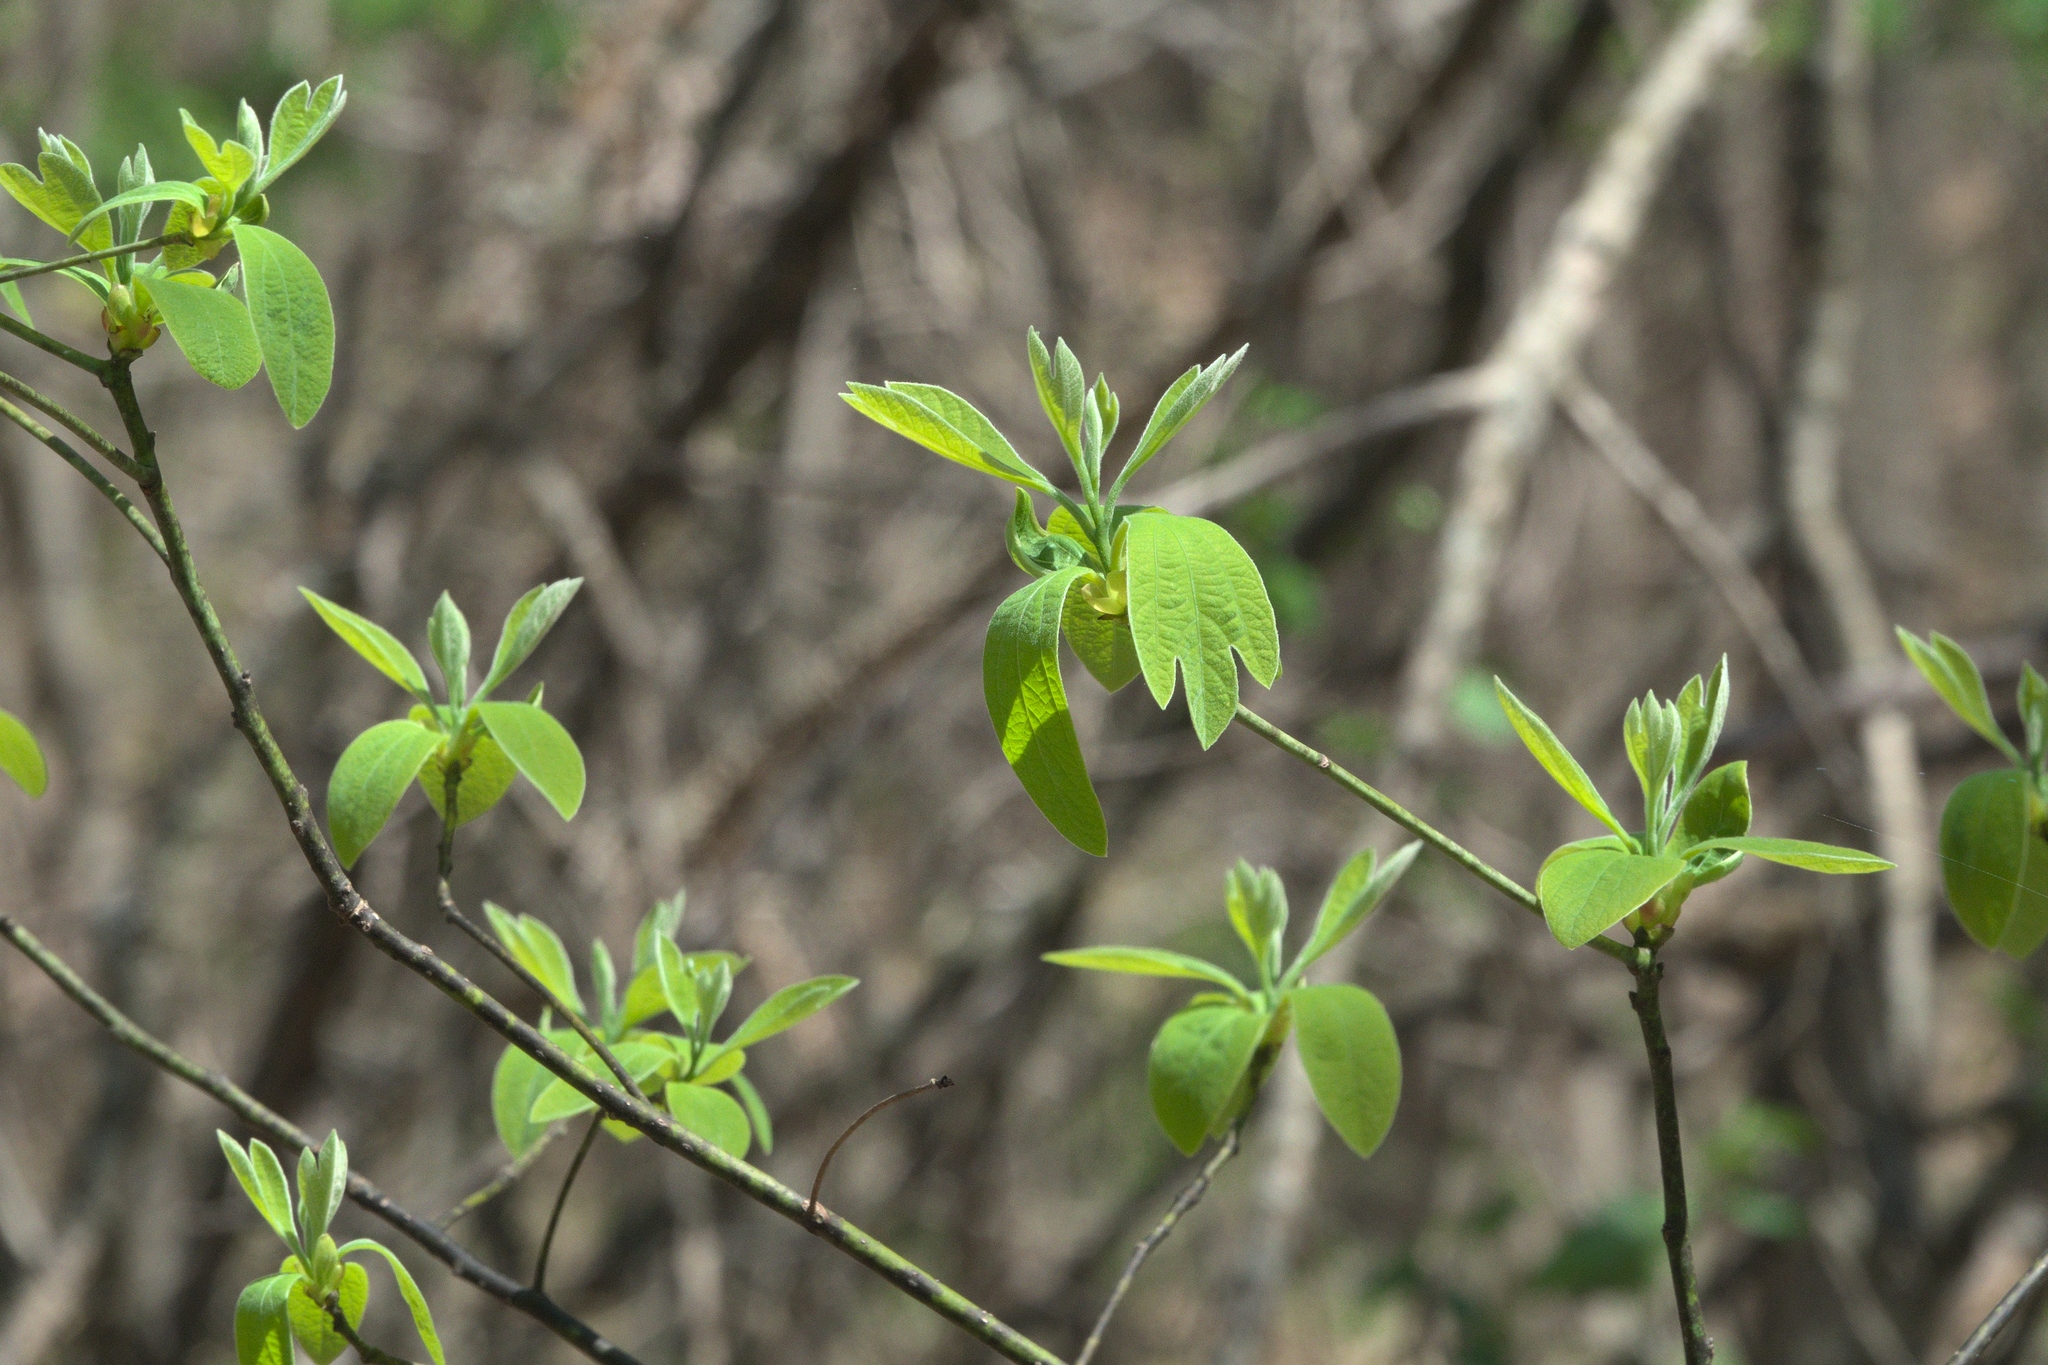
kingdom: Plantae
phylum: Tracheophyta
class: Magnoliopsida
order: Laurales
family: Lauraceae
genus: Sassafras
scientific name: Sassafras albidum
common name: Sassafras
